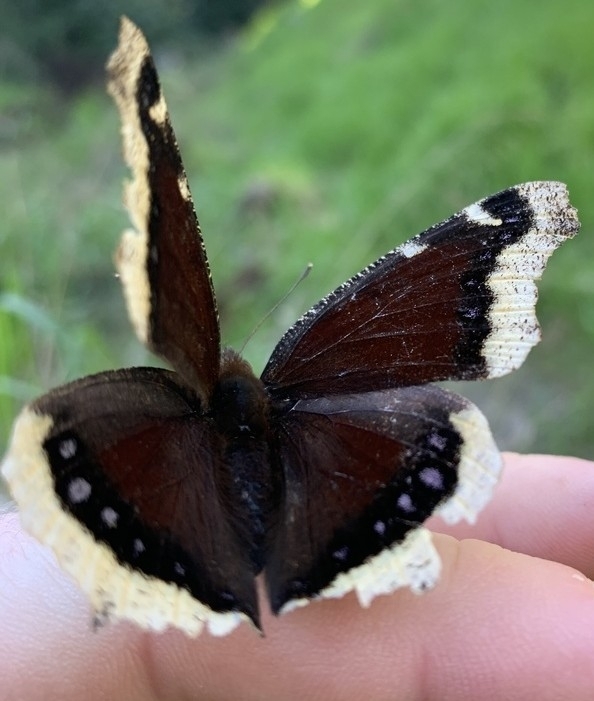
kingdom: Animalia
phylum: Arthropoda
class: Insecta
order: Lepidoptera
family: Nymphalidae
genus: Nymphalis
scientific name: Nymphalis antiopa
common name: Camberwell beauty
